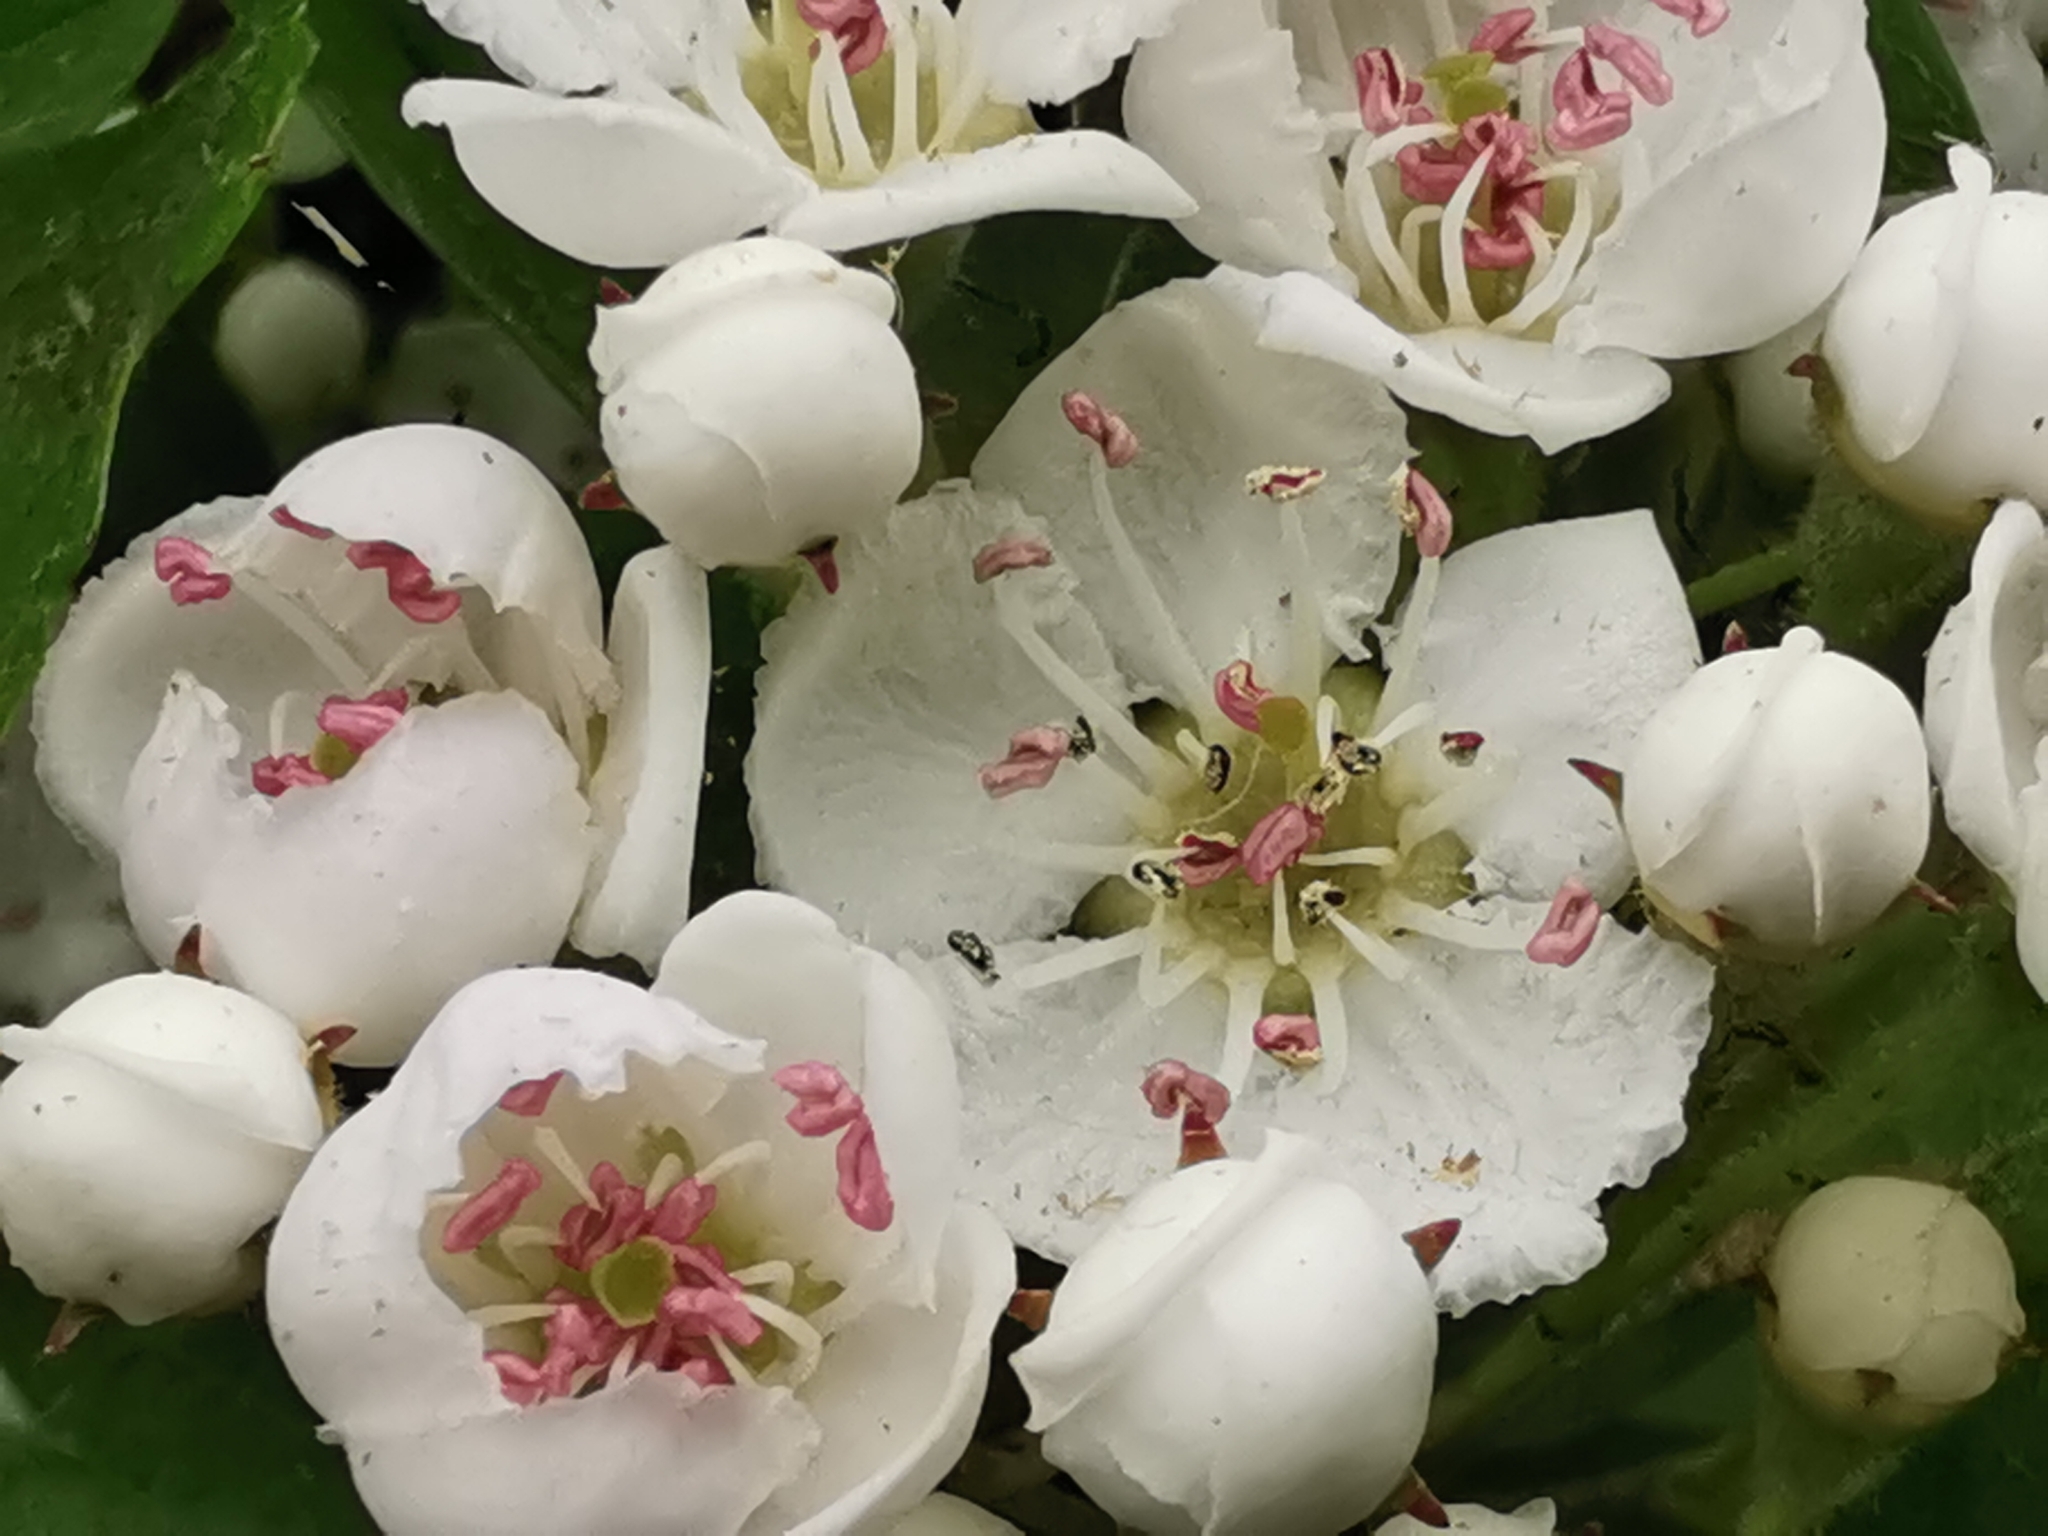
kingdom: Plantae
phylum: Tracheophyta
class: Magnoliopsida
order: Rosales
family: Rosaceae
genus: Crataegus
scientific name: Crataegus monogyna
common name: Hawthorn
